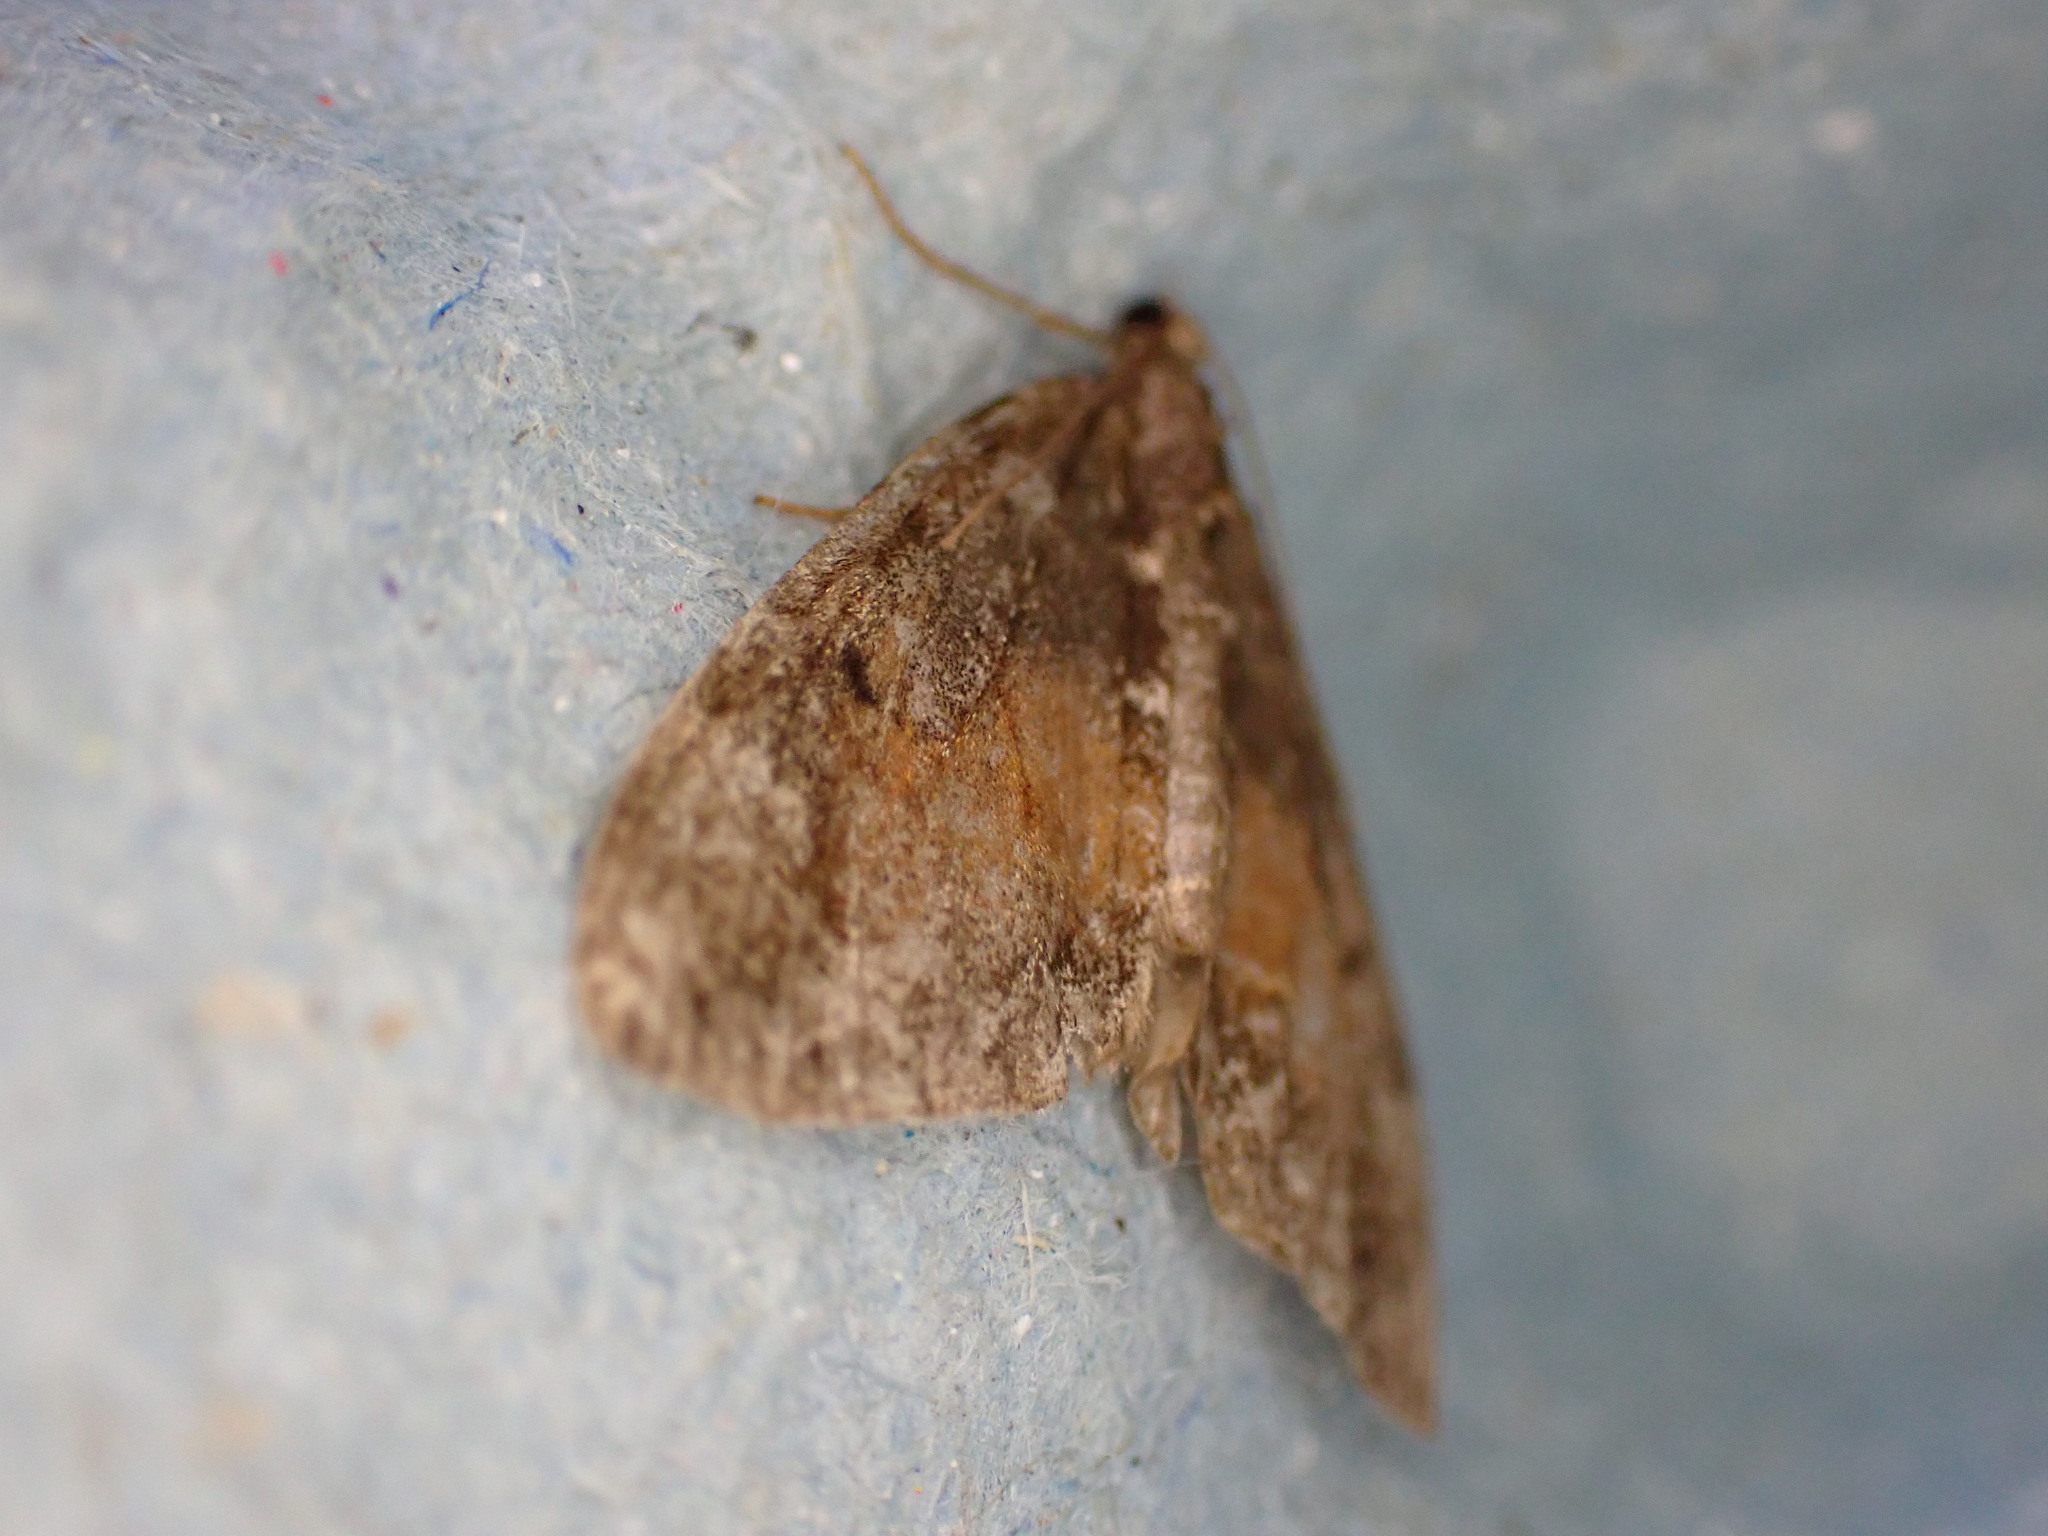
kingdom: Animalia
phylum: Arthropoda
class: Insecta
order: Lepidoptera
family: Geometridae
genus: Dysstroma
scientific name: Dysstroma truncata
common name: Common marbled carpet
